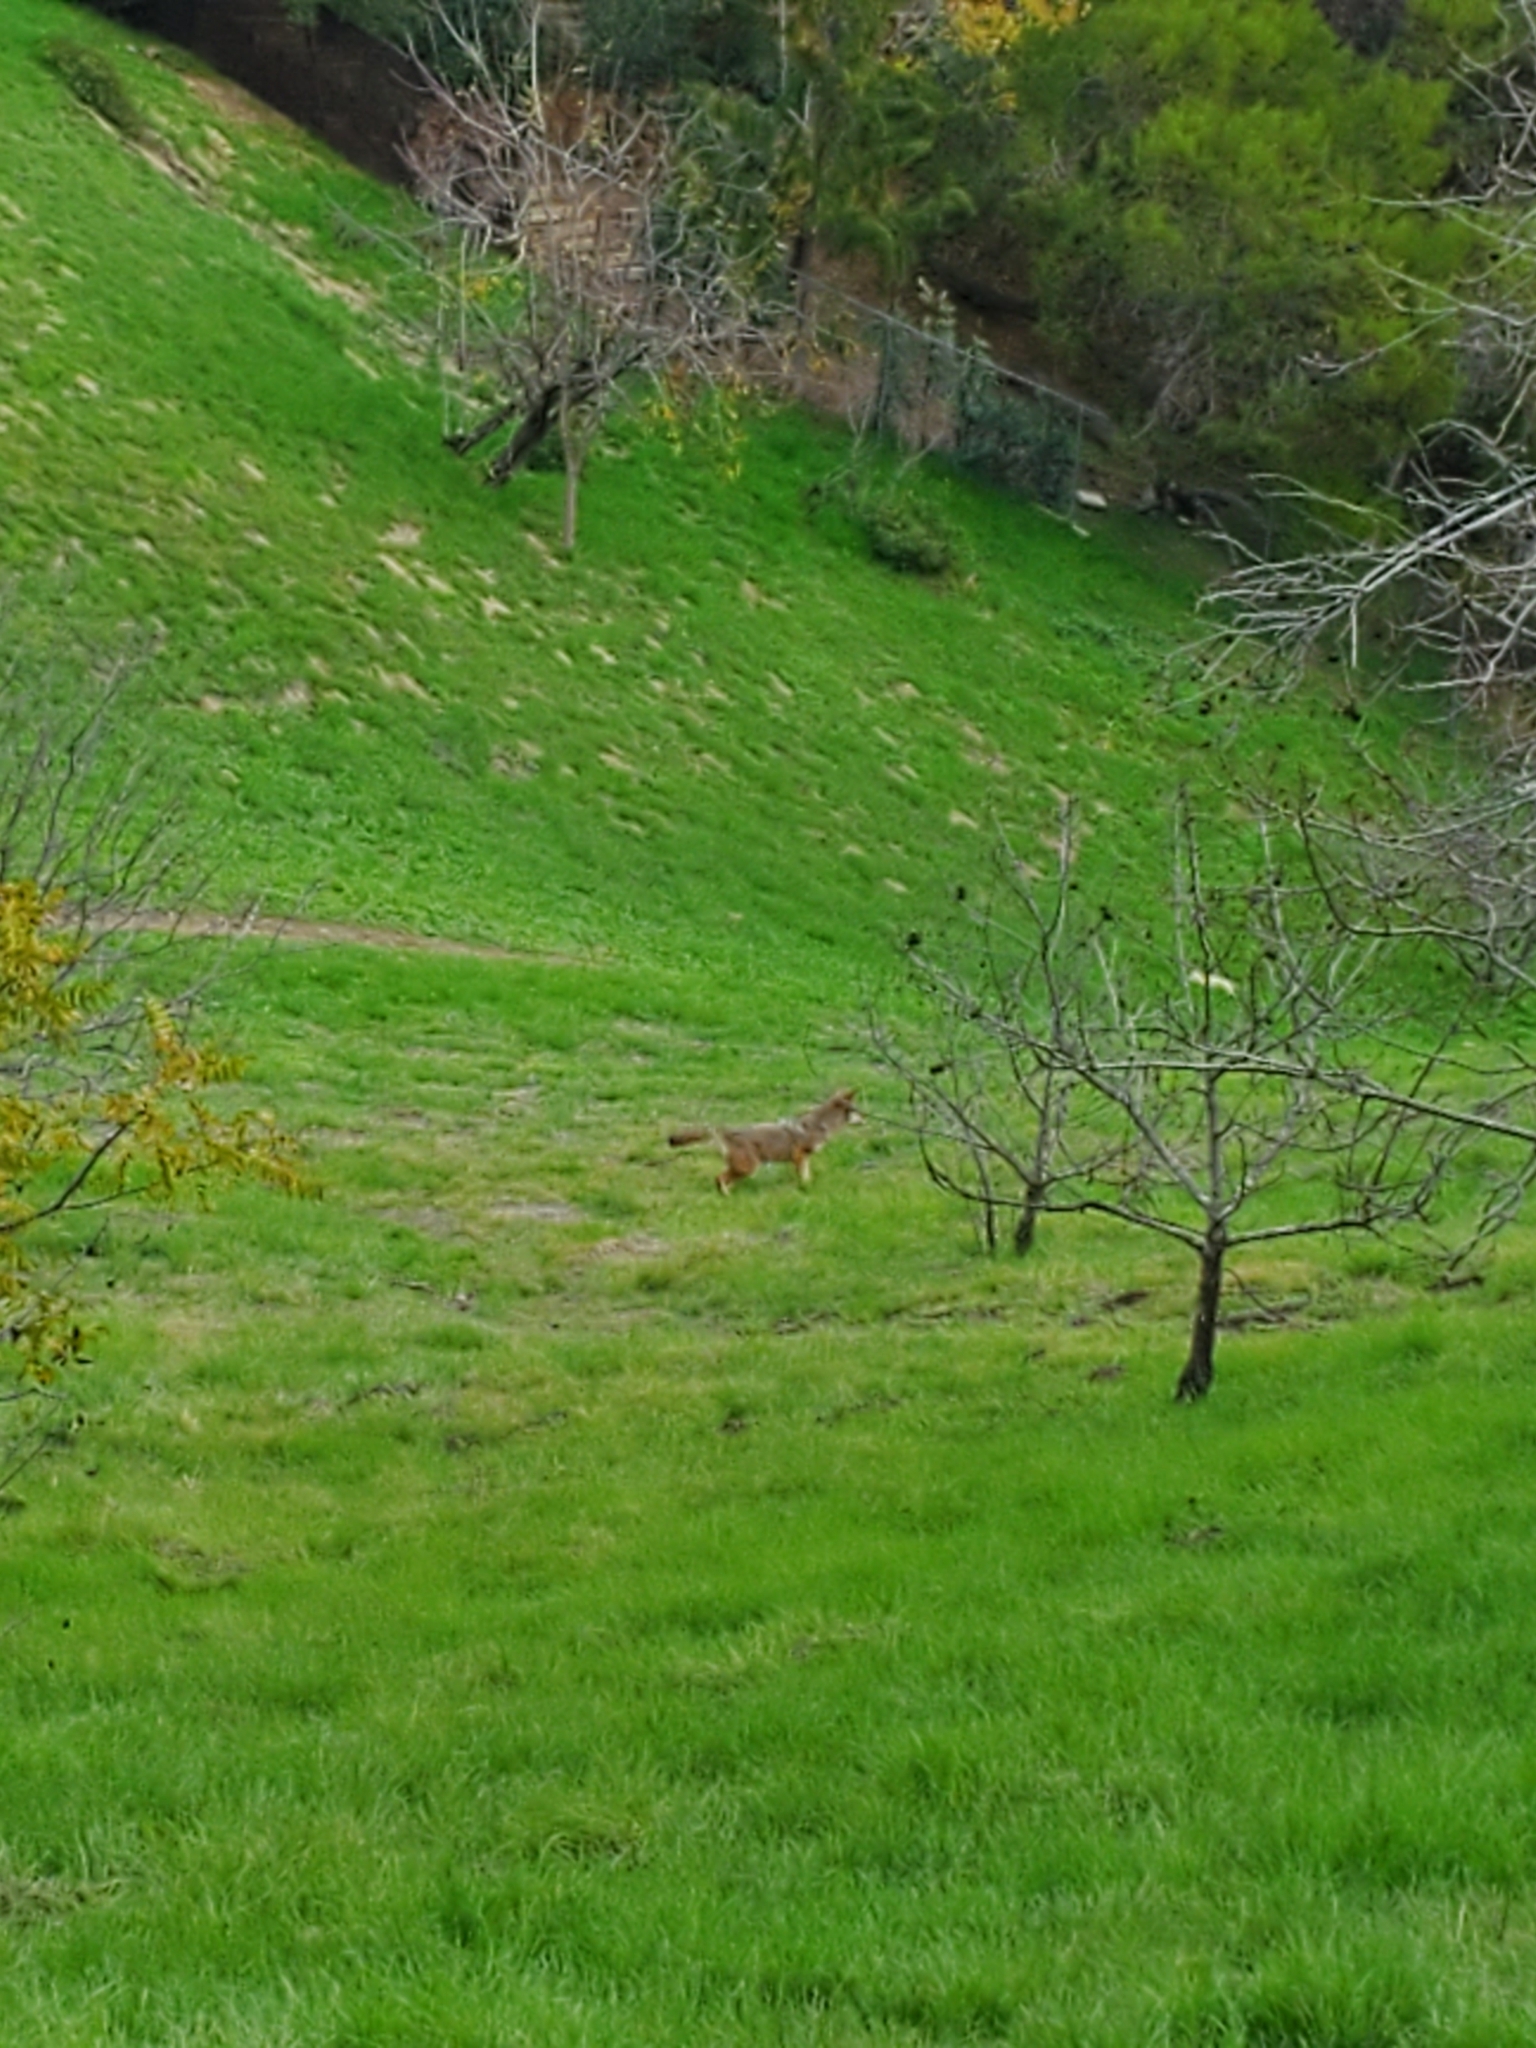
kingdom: Animalia
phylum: Chordata
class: Mammalia
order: Carnivora
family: Canidae
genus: Canis
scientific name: Canis latrans
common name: Coyote
